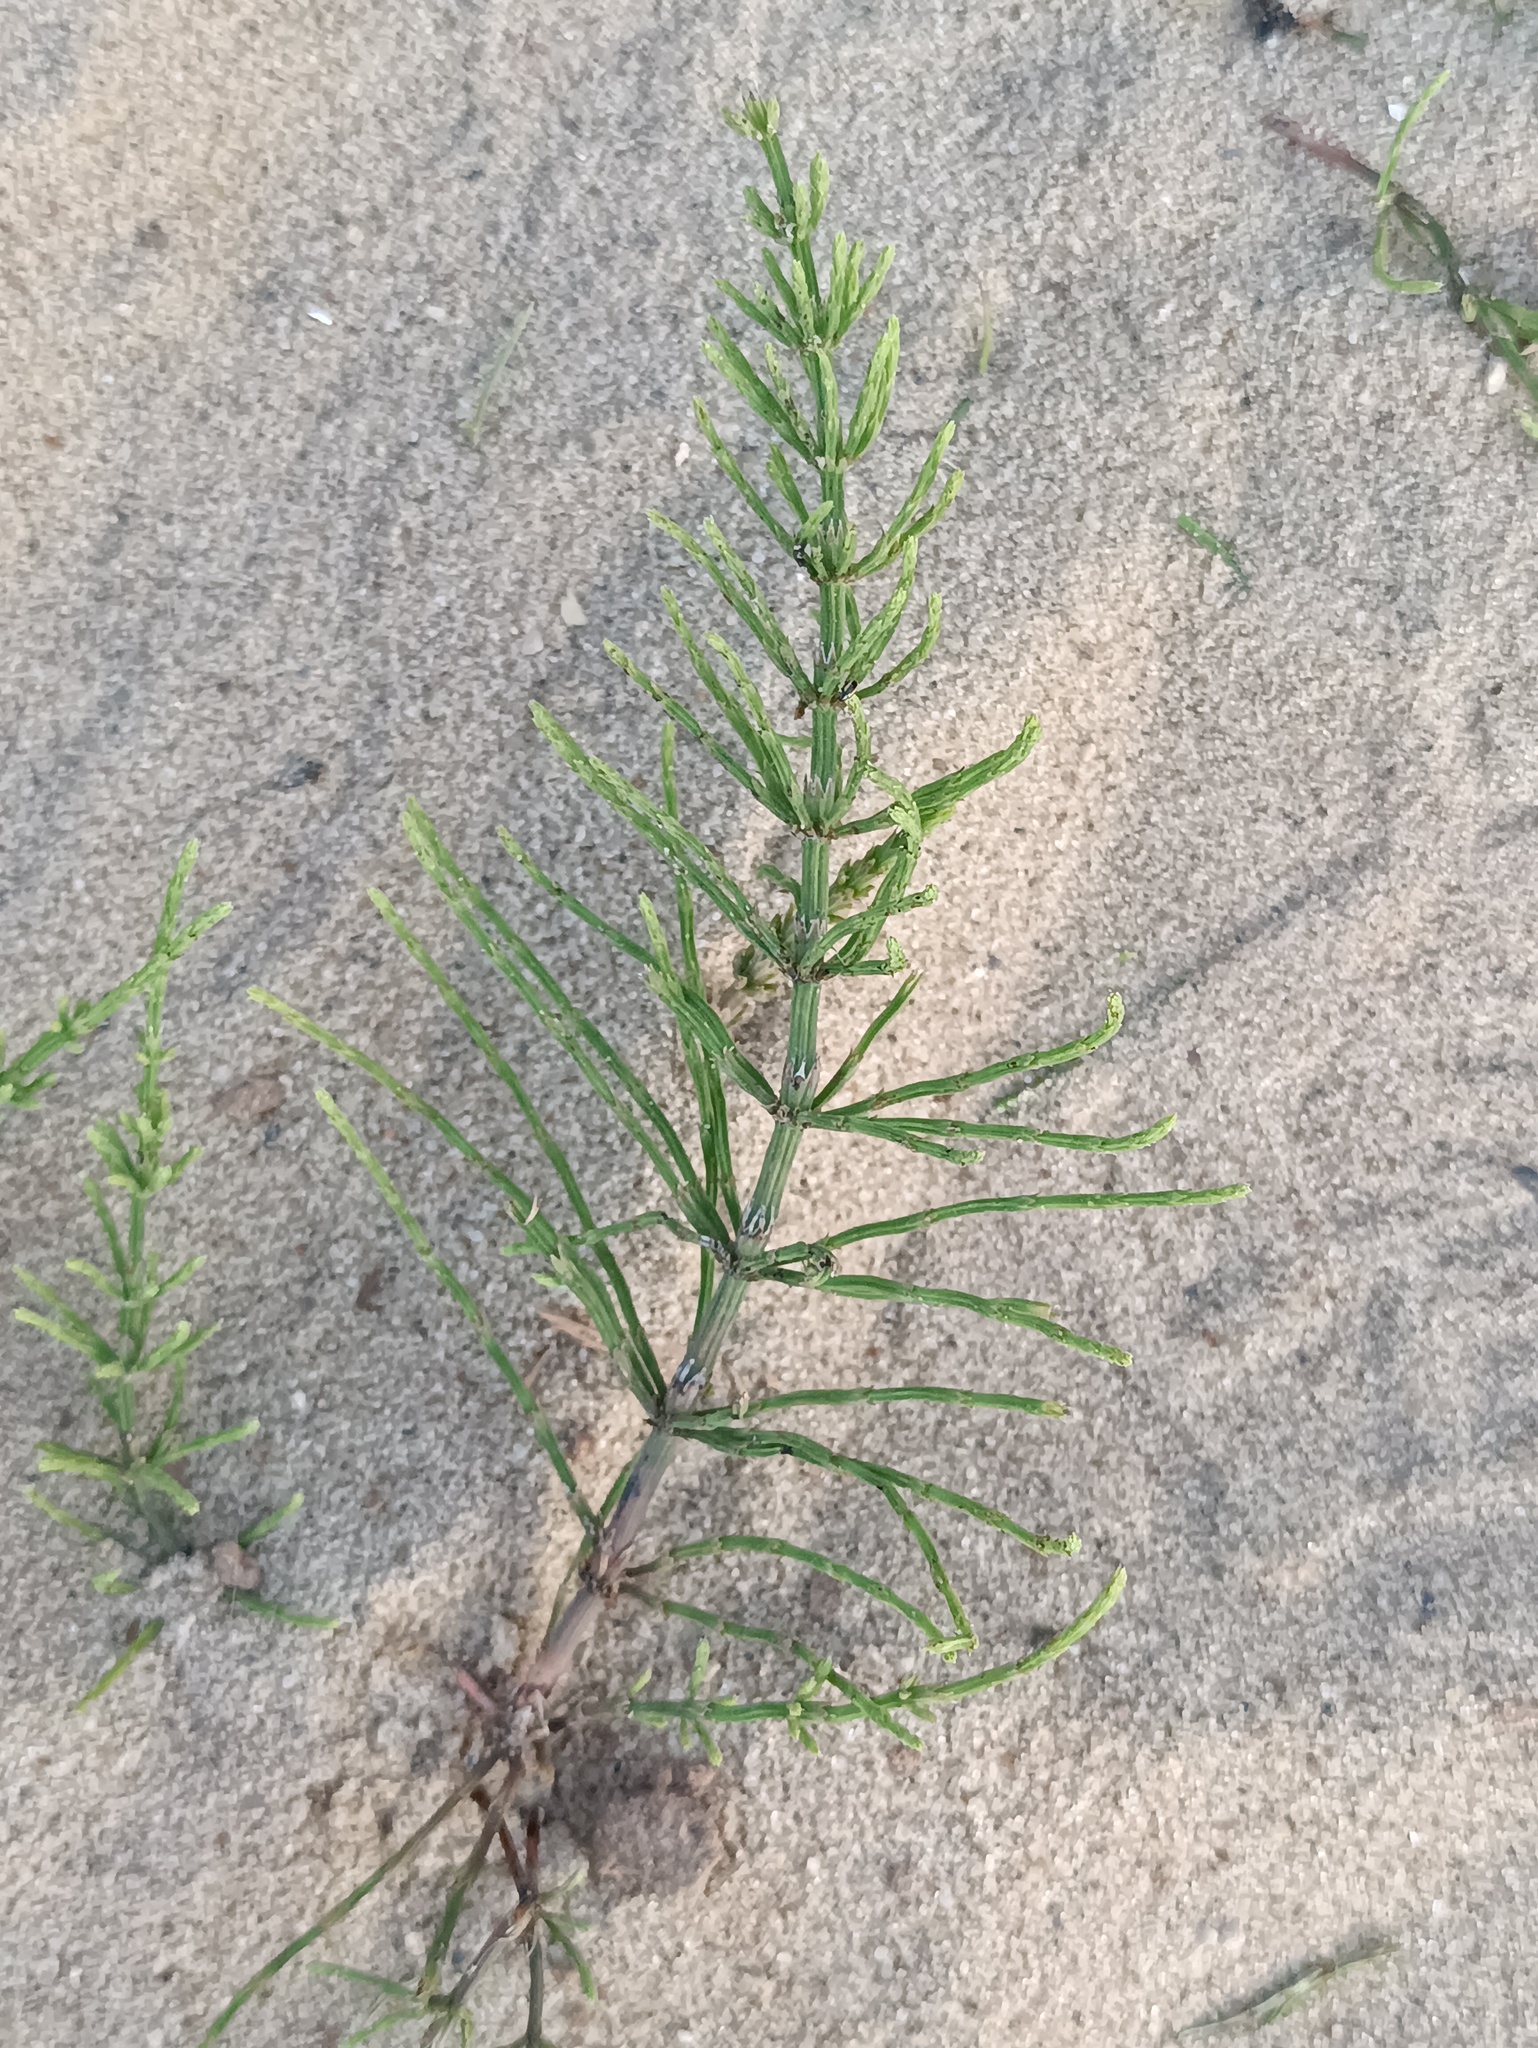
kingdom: Plantae
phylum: Tracheophyta
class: Polypodiopsida
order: Equisetales
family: Equisetaceae
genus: Equisetum
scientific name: Equisetum arvense
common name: Field horsetail
